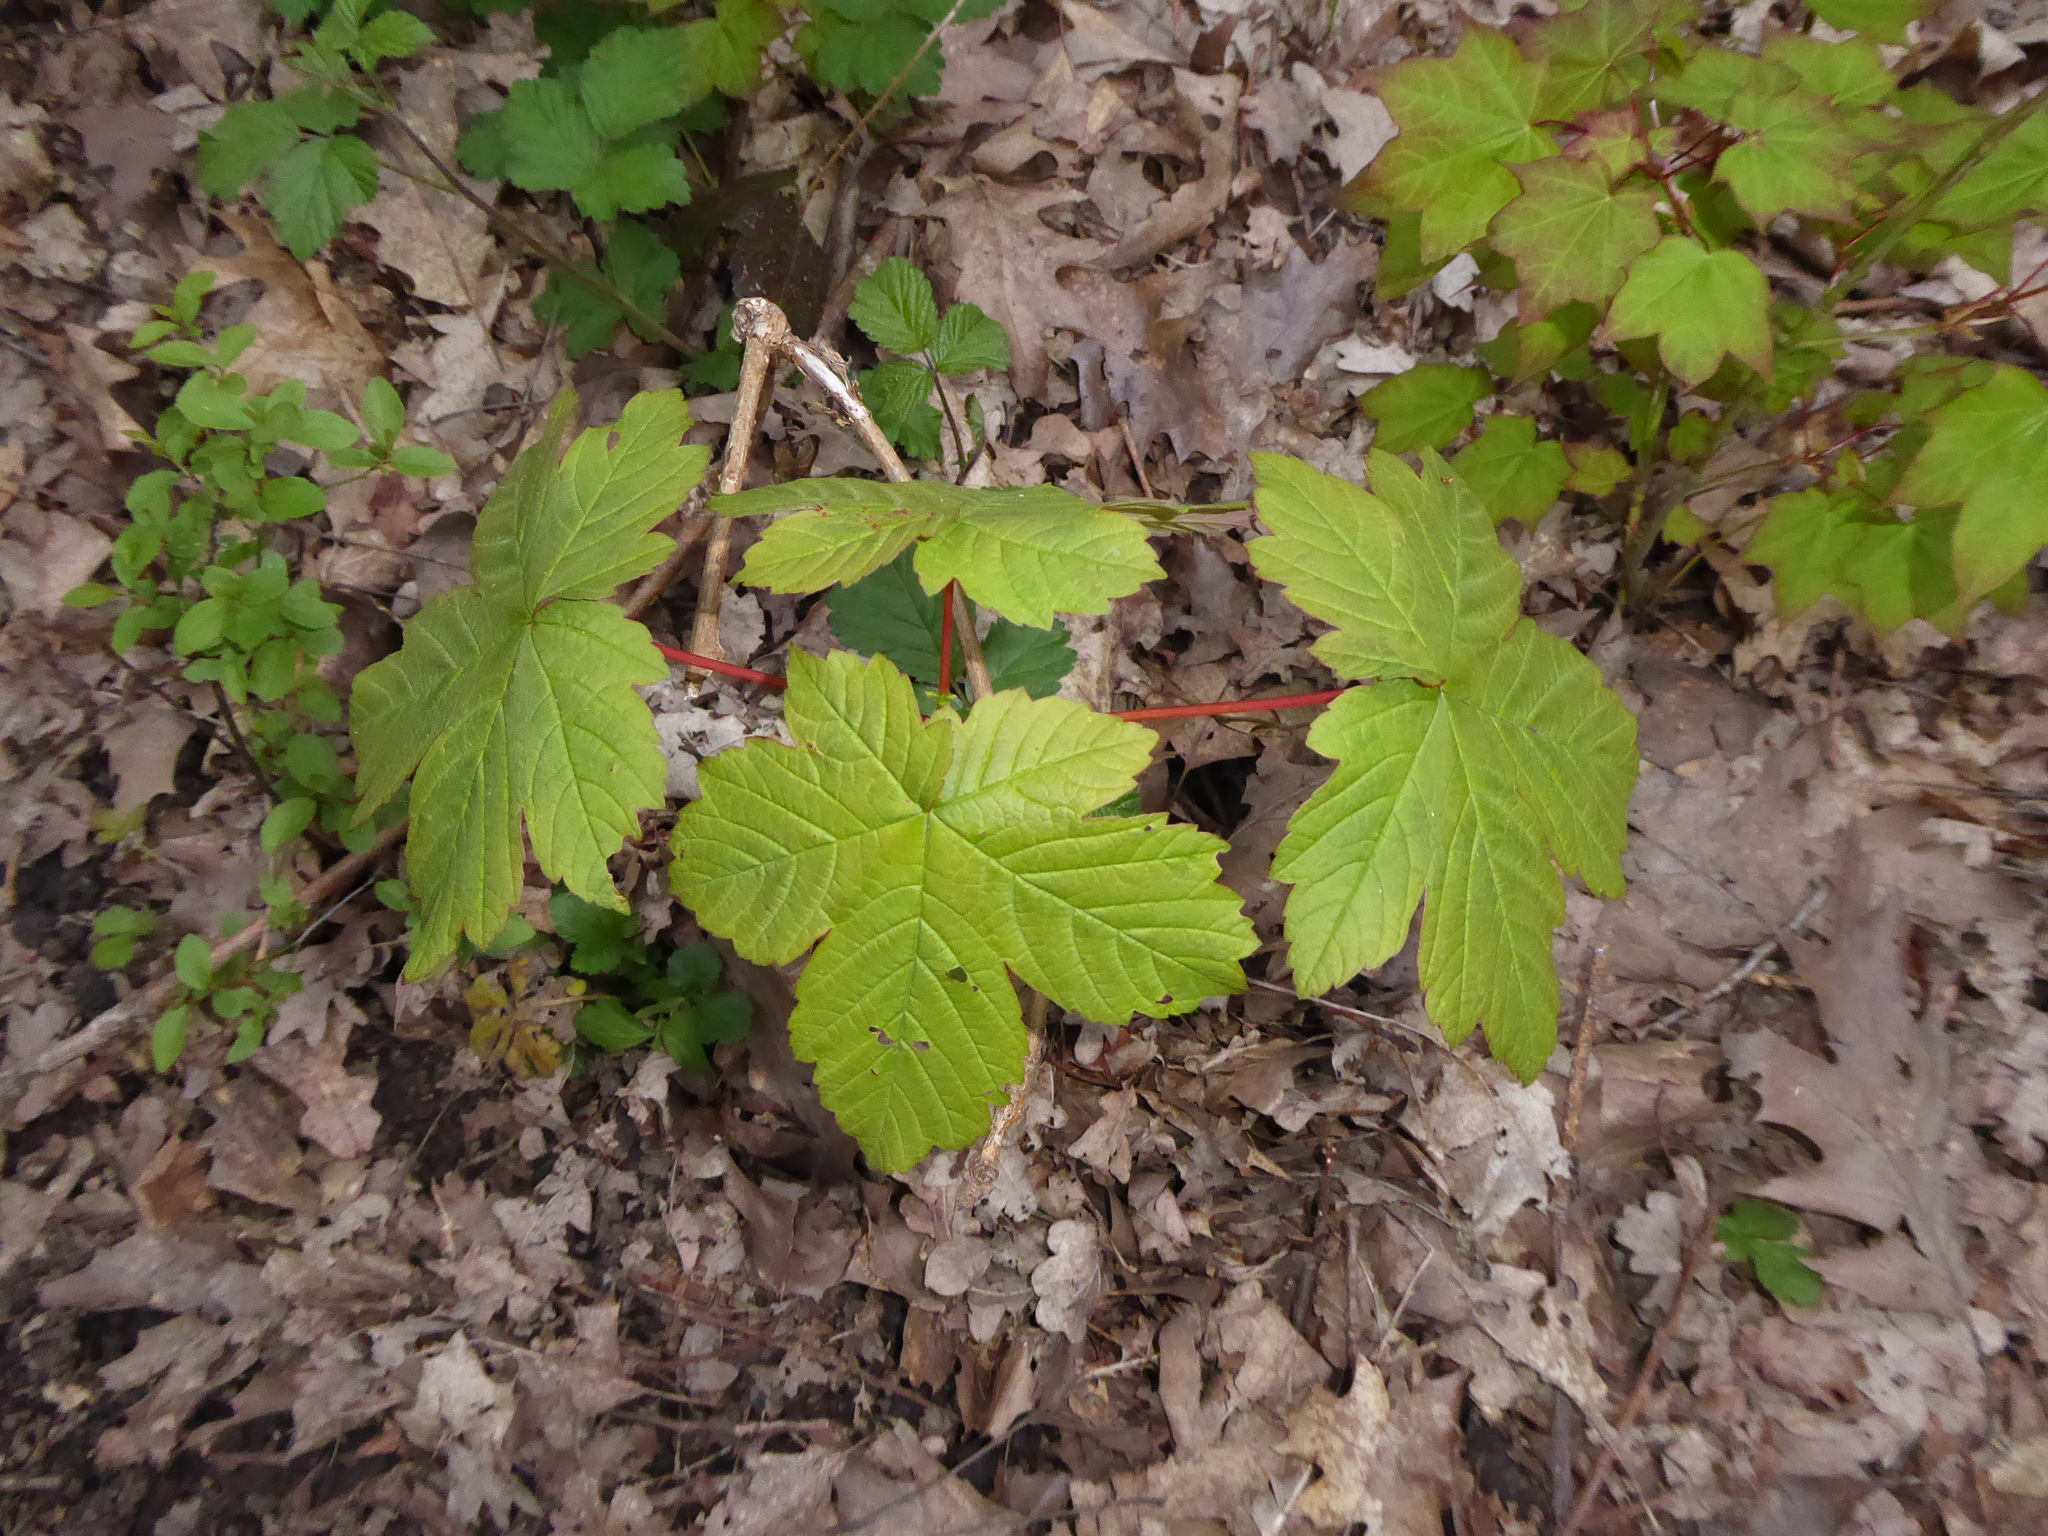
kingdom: Plantae
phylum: Tracheophyta
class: Magnoliopsida
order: Sapindales
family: Sapindaceae
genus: Acer
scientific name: Acer pseudoplatanus
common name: Sycamore
